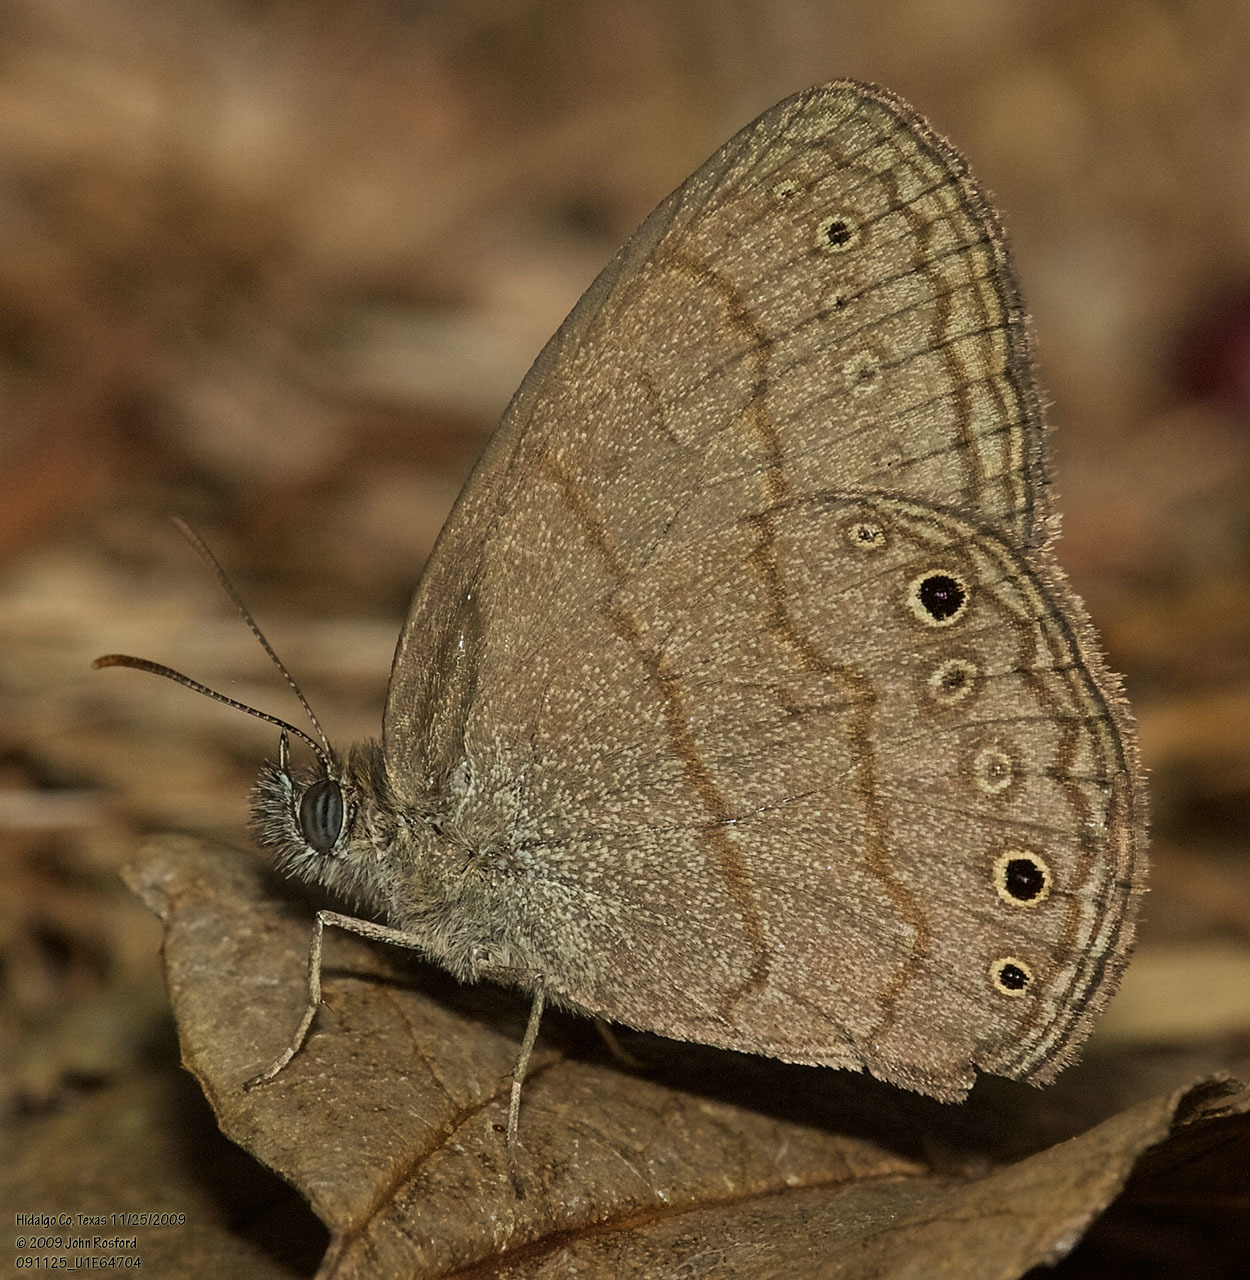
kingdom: Animalia
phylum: Arthropoda
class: Insecta
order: Lepidoptera
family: Nymphalidae
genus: Hermeuptychia
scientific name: Hermeuptychia hermybius
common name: South texas satyr
